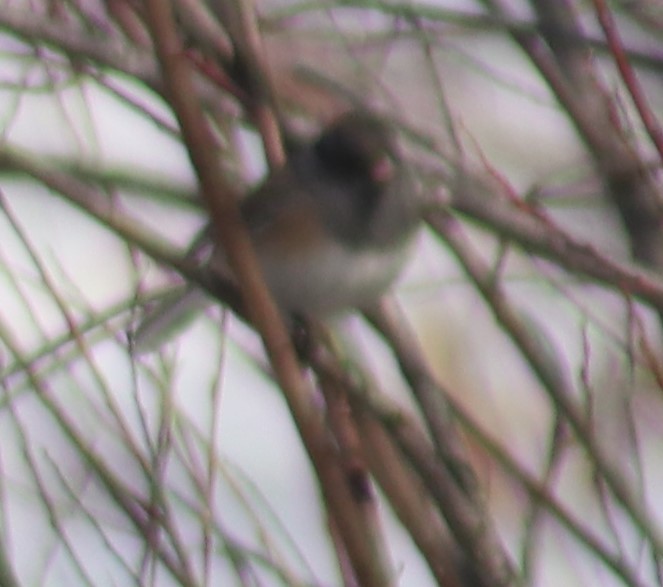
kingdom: Animalia
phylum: Chordata
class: Aves
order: Passeriformes
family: Passerellidae
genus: Junco
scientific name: Junco hyemalis
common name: Dark-eyed junco
